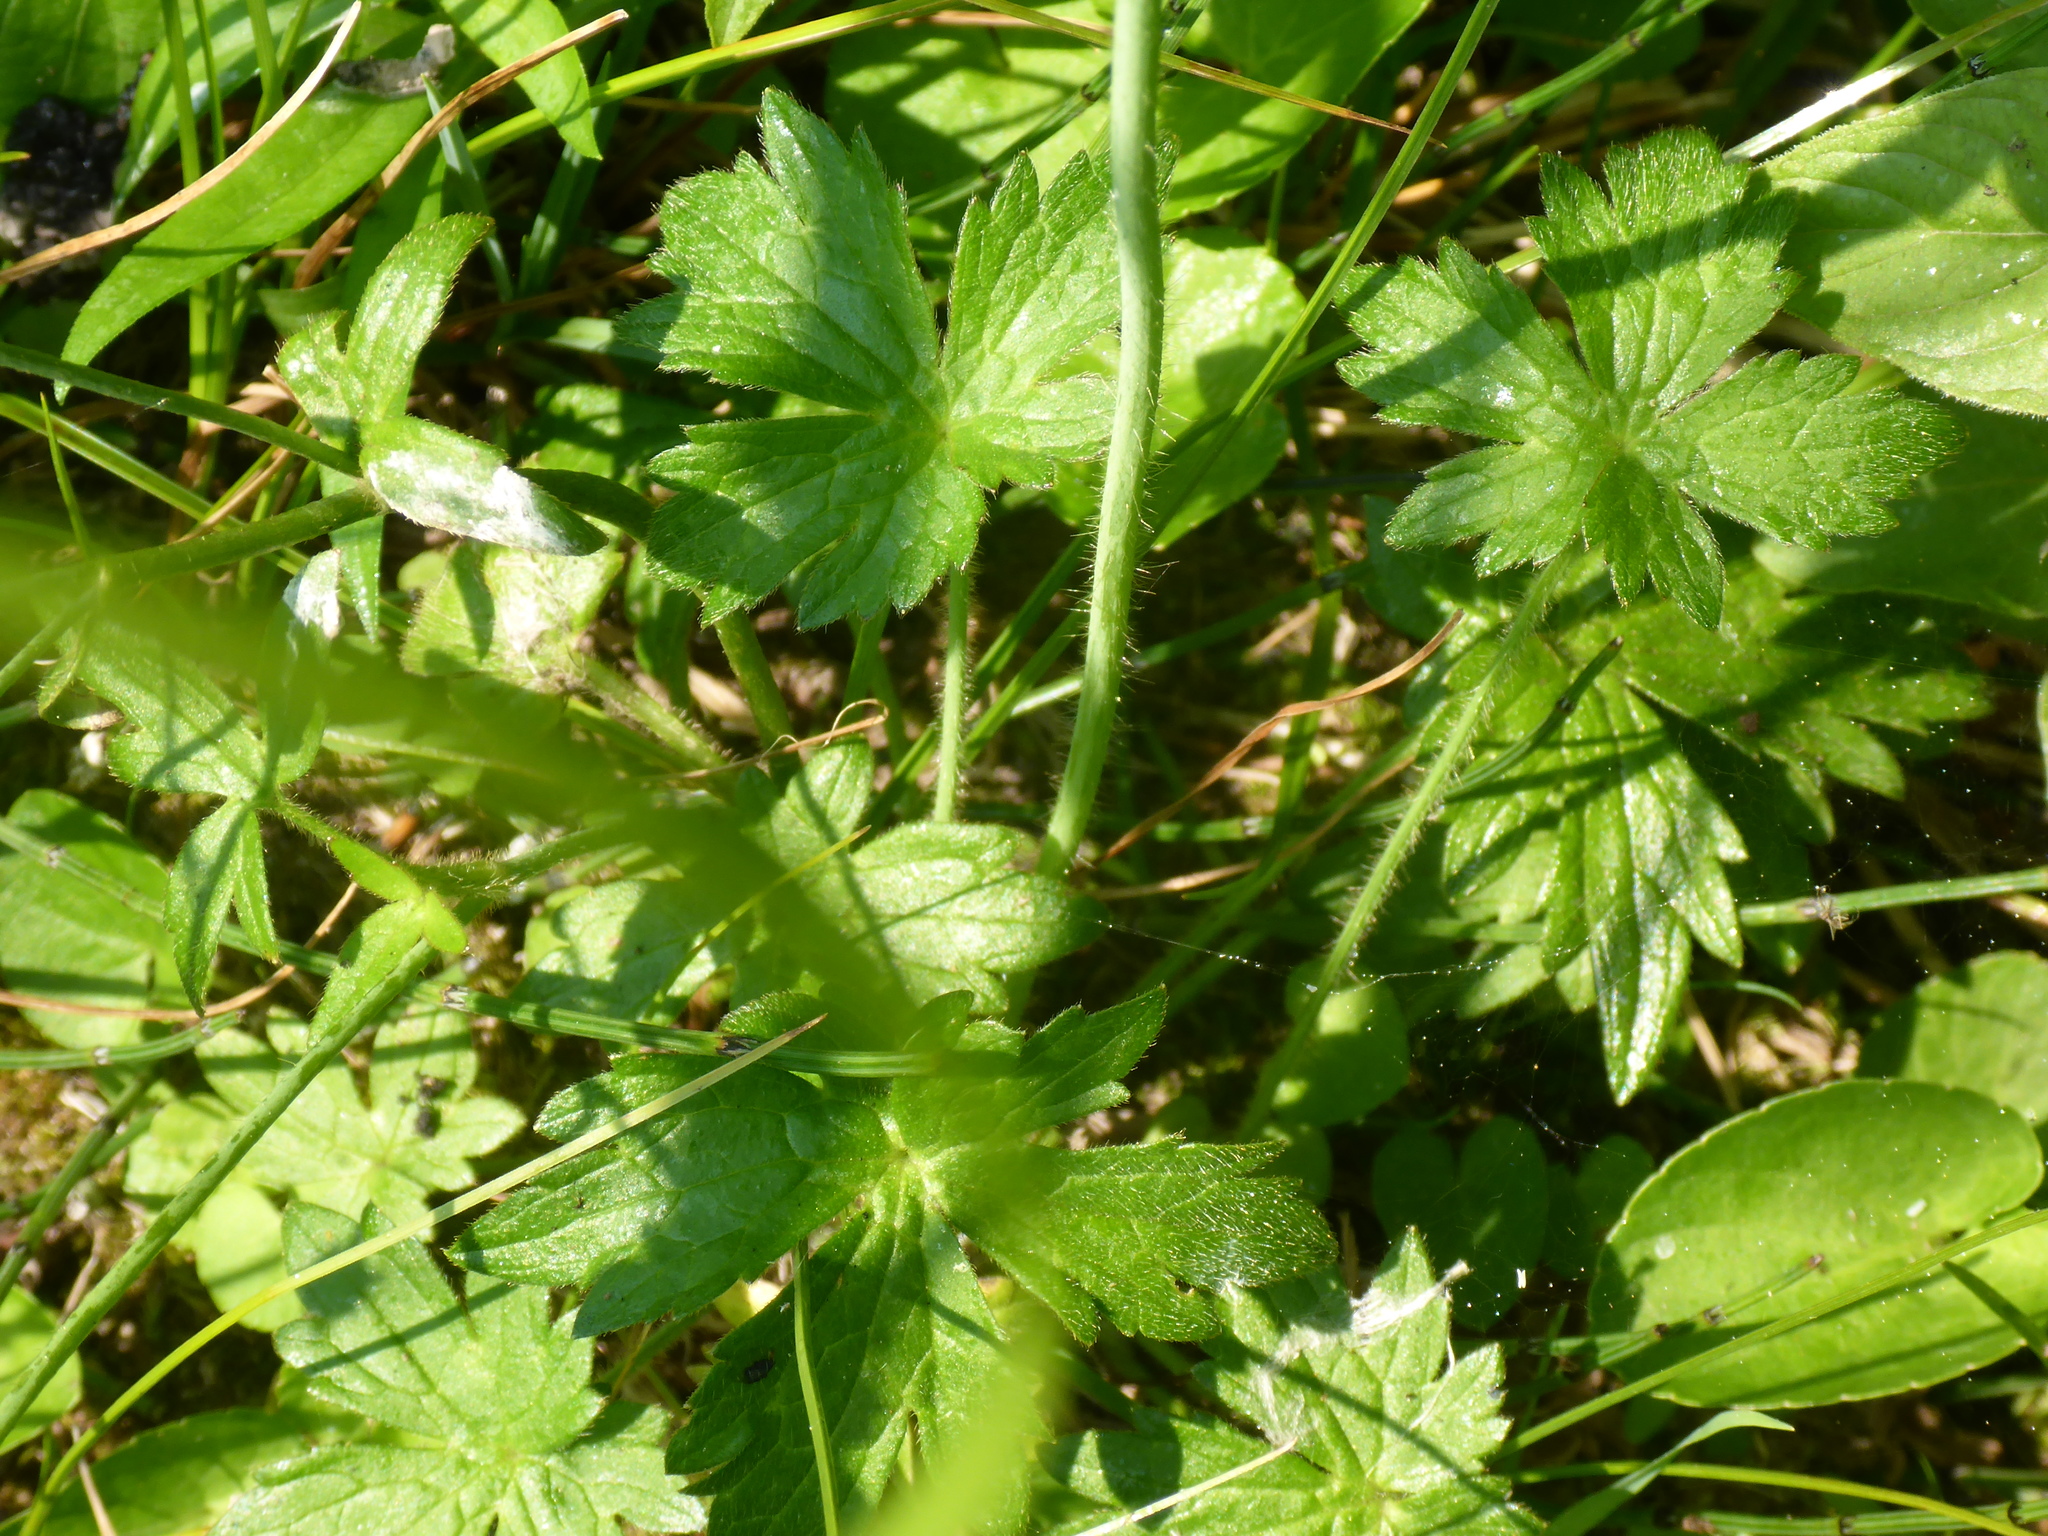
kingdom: Plantae
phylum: Tracheophyta
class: Magnoliopsida
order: Ranunculales
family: Ranunculaceae
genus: Ranunculus
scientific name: Ranunculus acris
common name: Meadow buttercup
